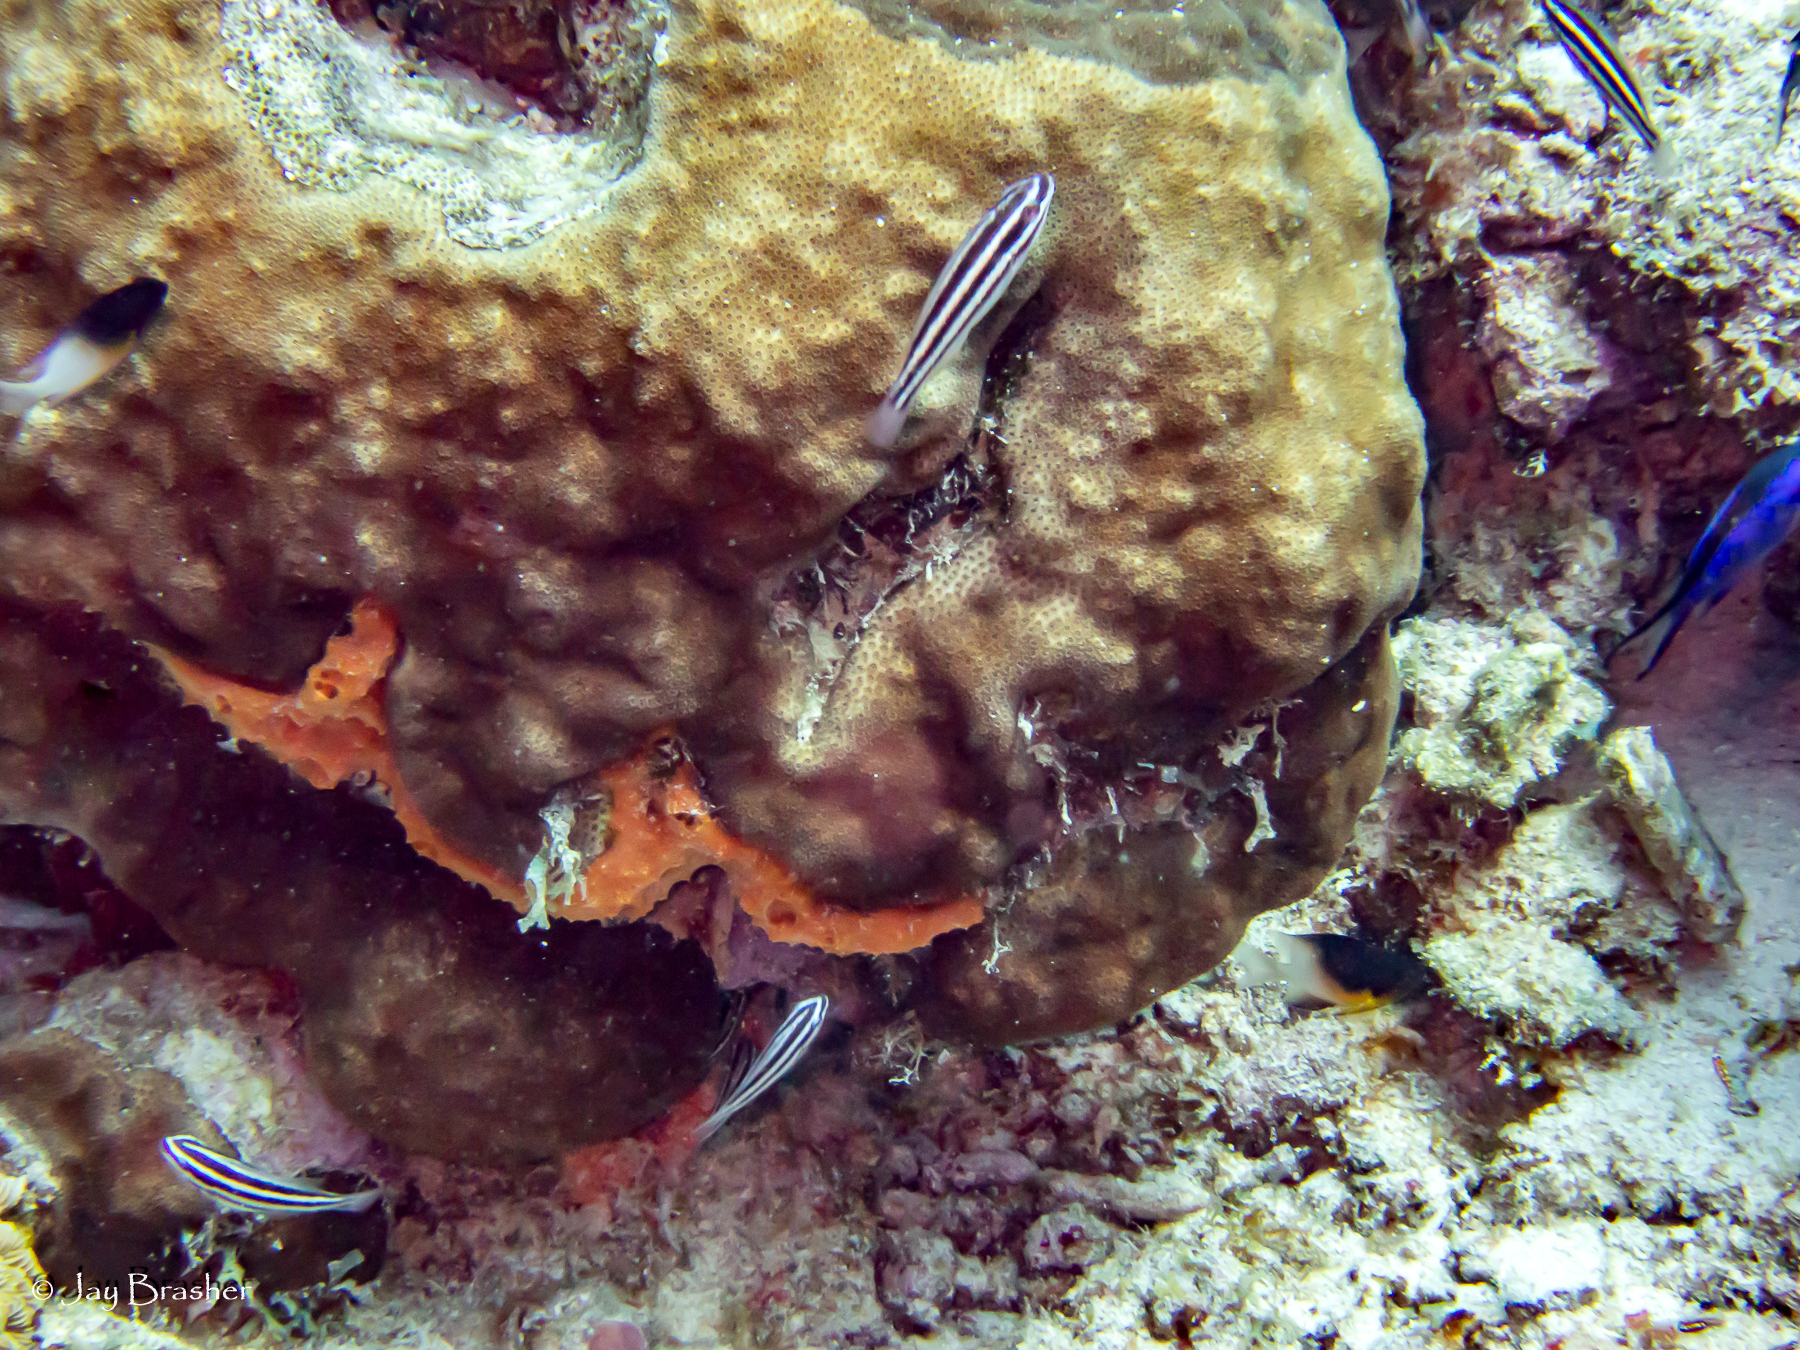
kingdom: Animalia
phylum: Chordata
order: Perciformes
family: Scaridae
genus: Scarus
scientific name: Scarus iseri
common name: Striped parrotfish
